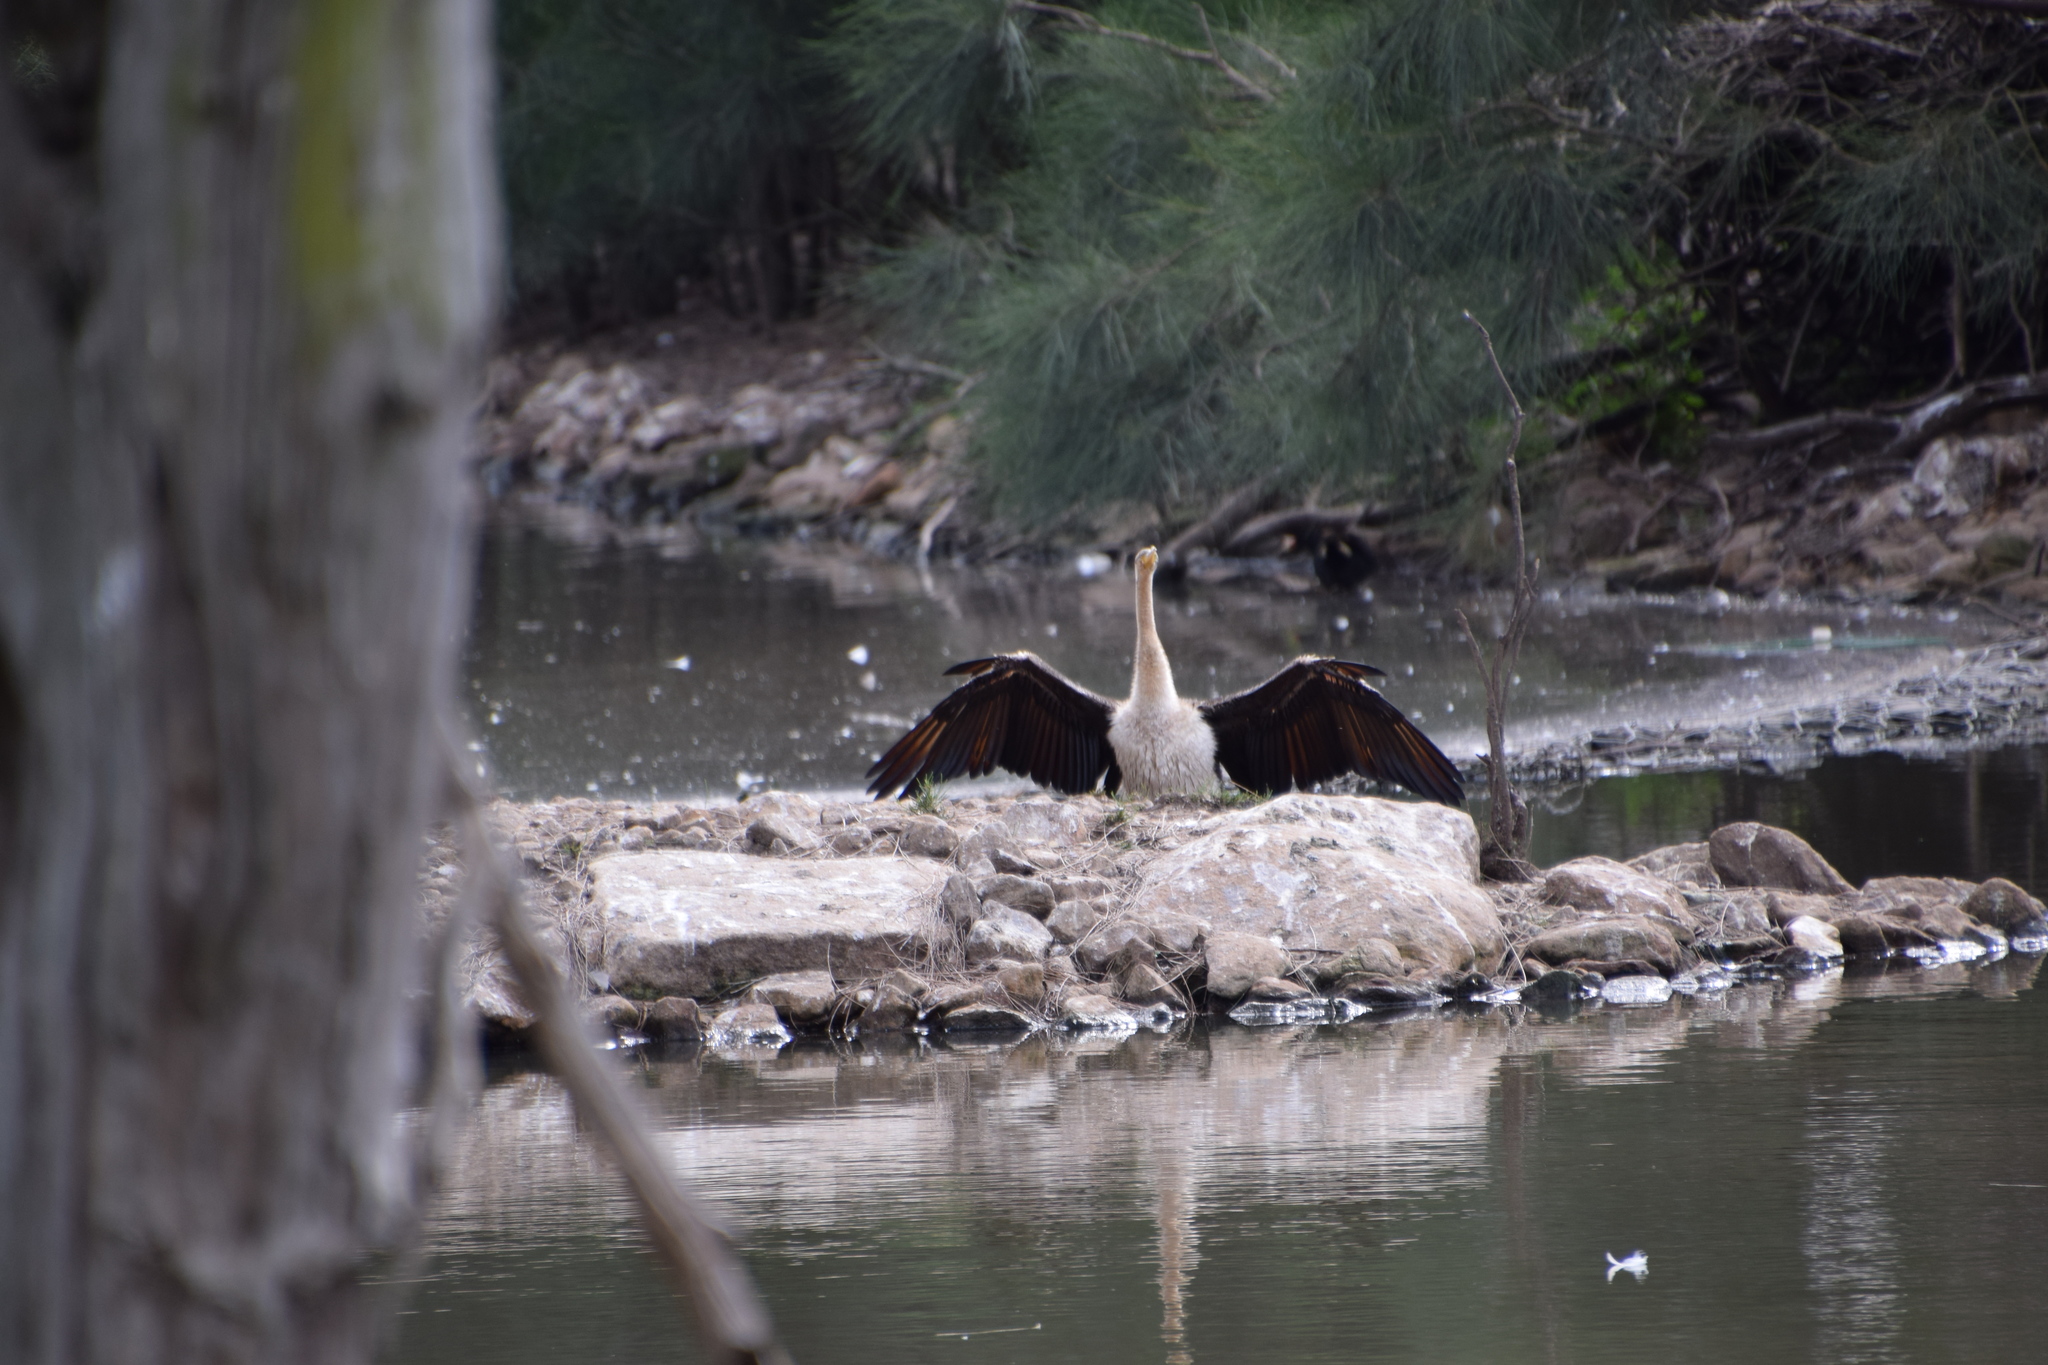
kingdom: Animalia
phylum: Chordata
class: Aves
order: Suliformes
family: Anhingidae
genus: Anhinga
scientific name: Anhinga novaehollandiae
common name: Australasian darter
